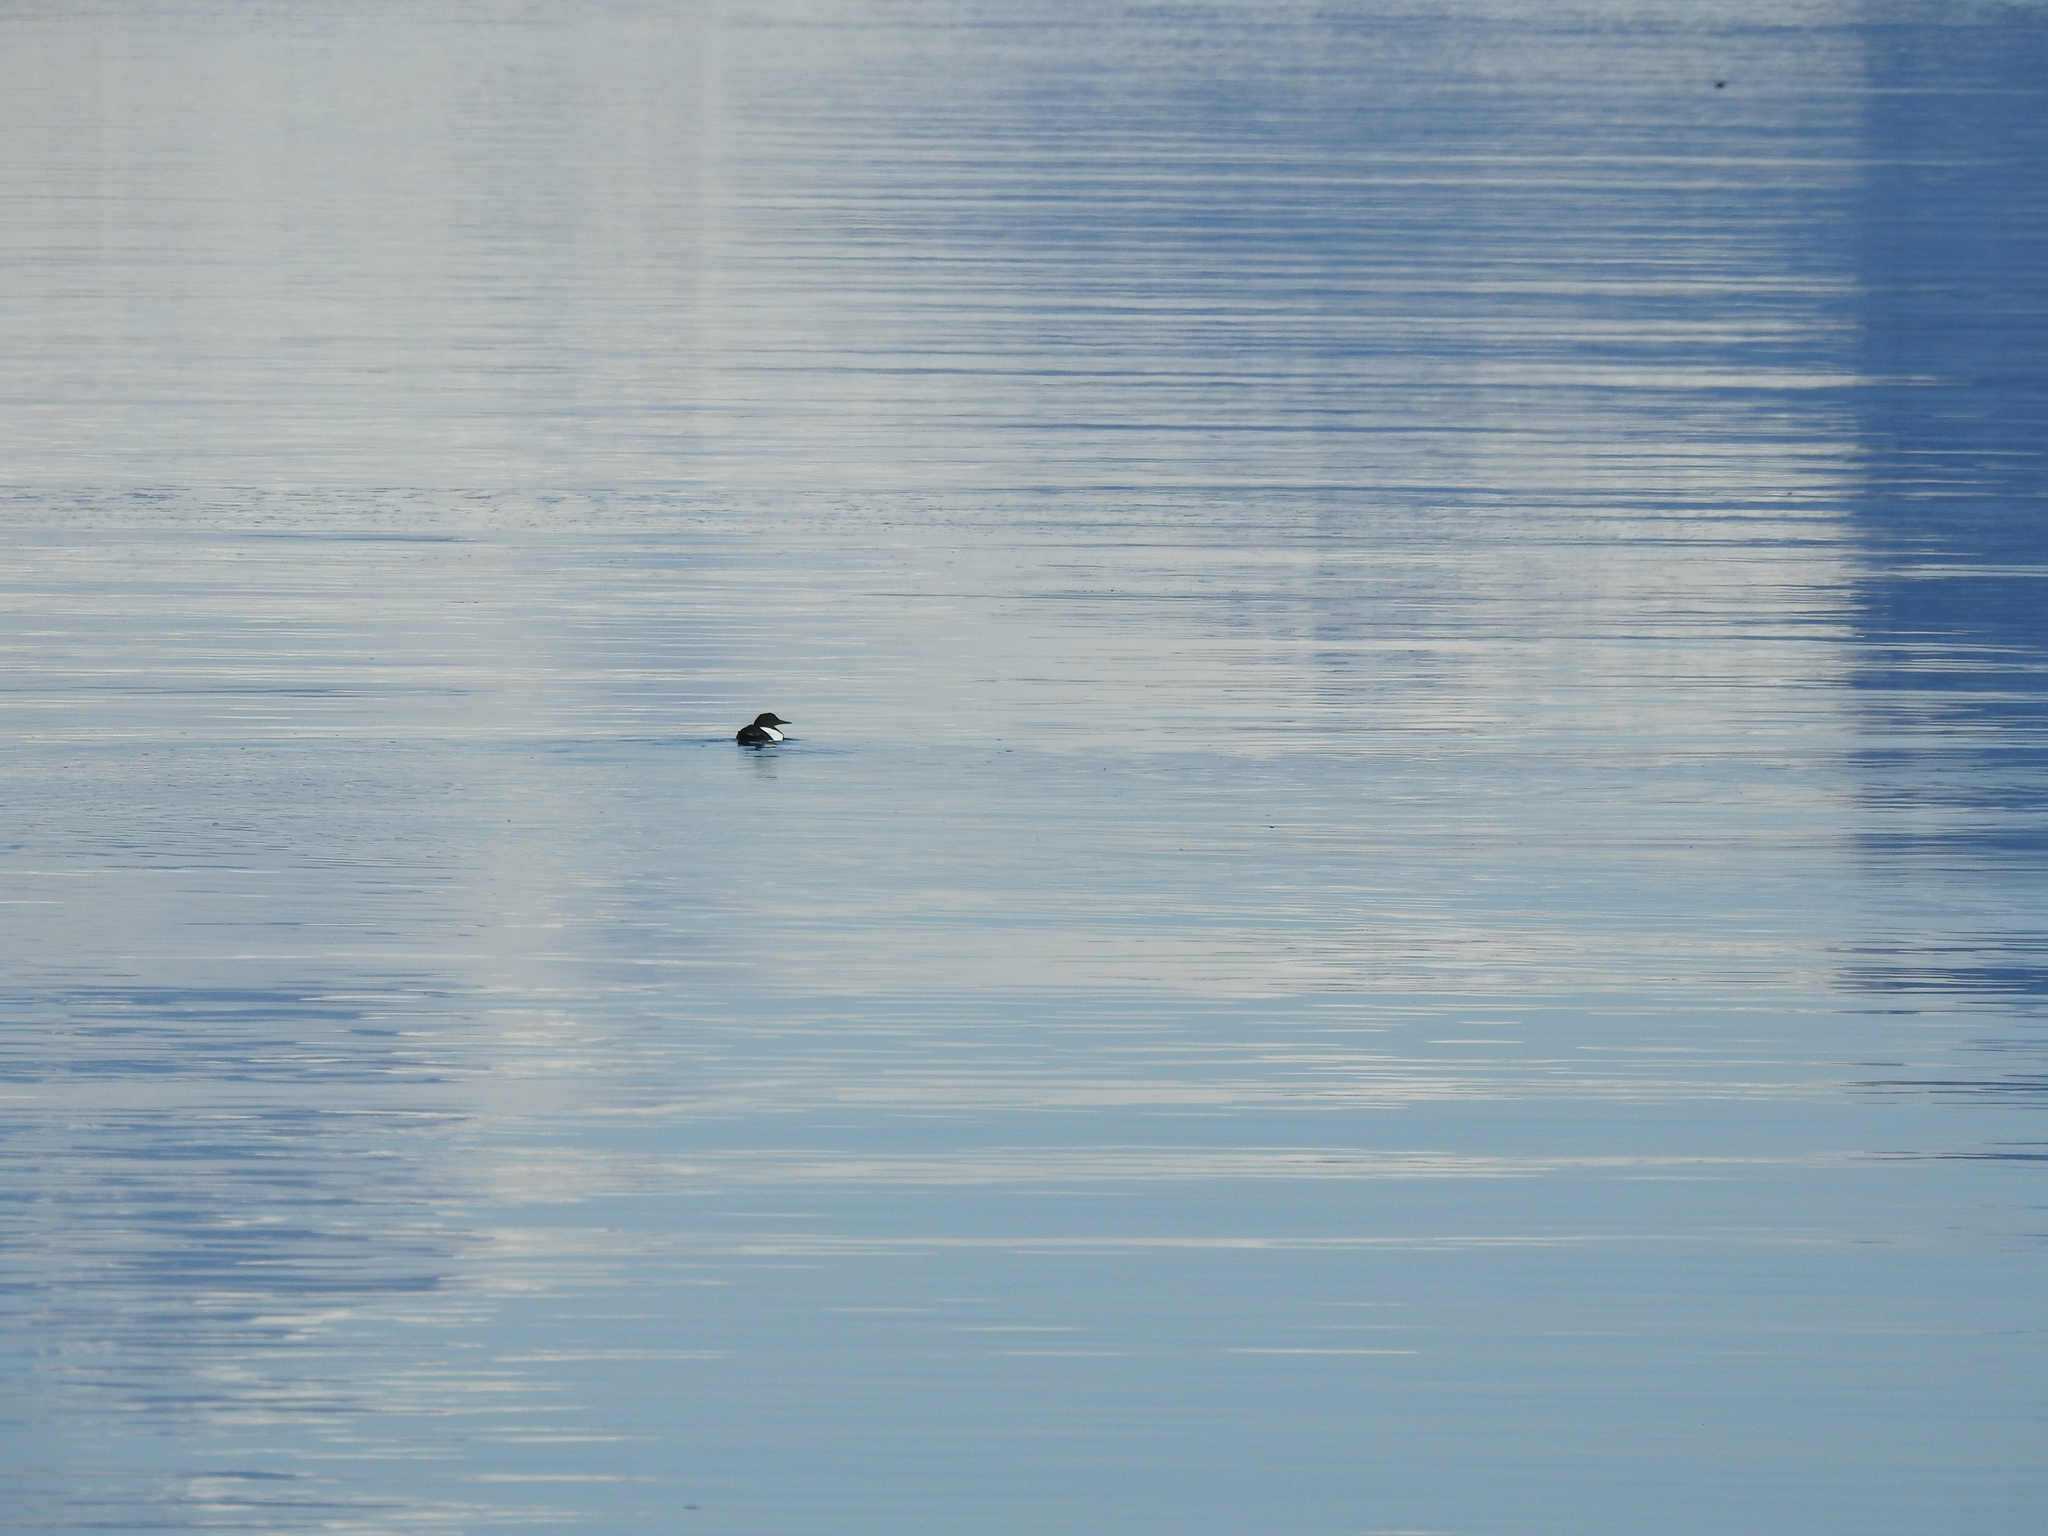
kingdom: Animalia
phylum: Chordata
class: Aves
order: Charadriiformes
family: Alcidae
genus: Cepphus
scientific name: Cepphus grylle
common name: Black guillemot
